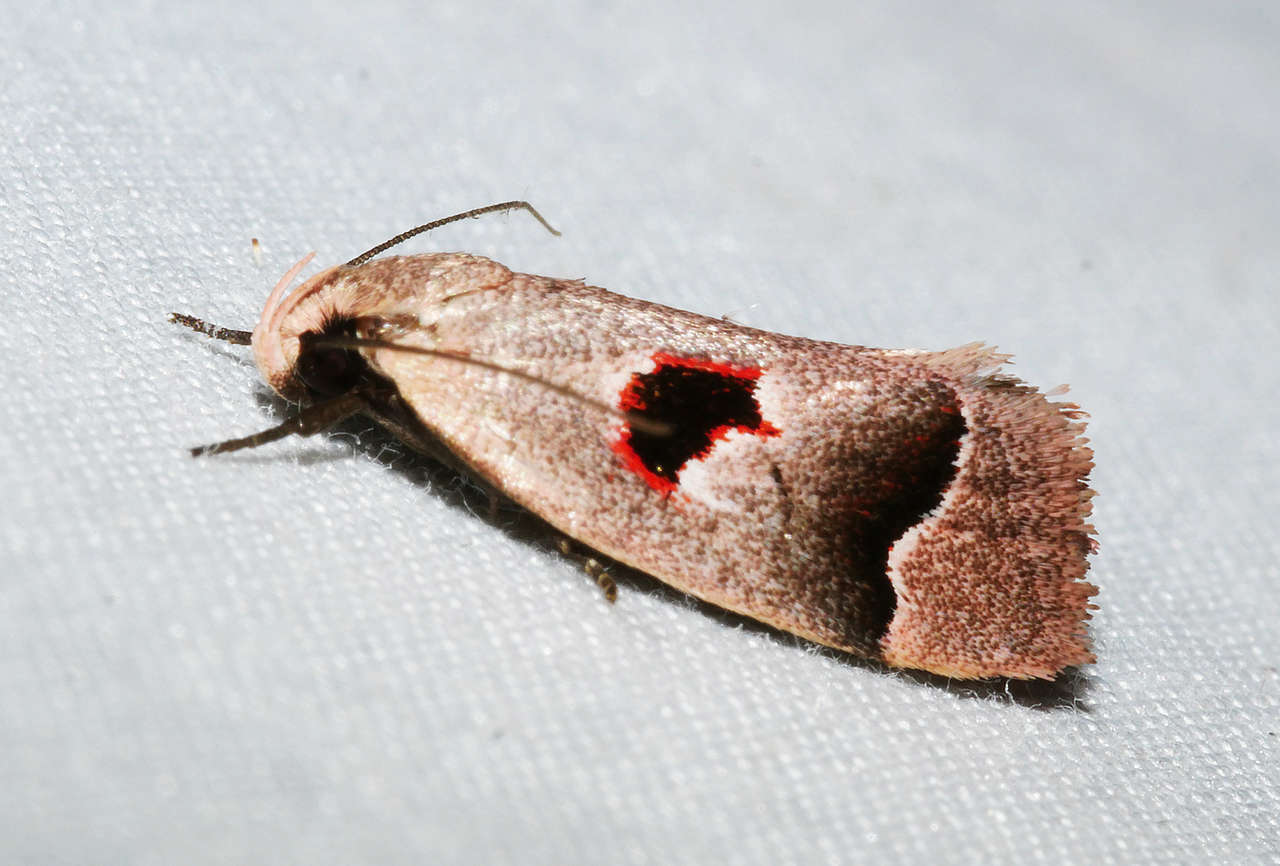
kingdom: Animalia
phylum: Arthropoda
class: Insecta
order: Lepidoptera
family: Oecophoridae
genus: Acanthodela
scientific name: Acanthodela erythrosema
